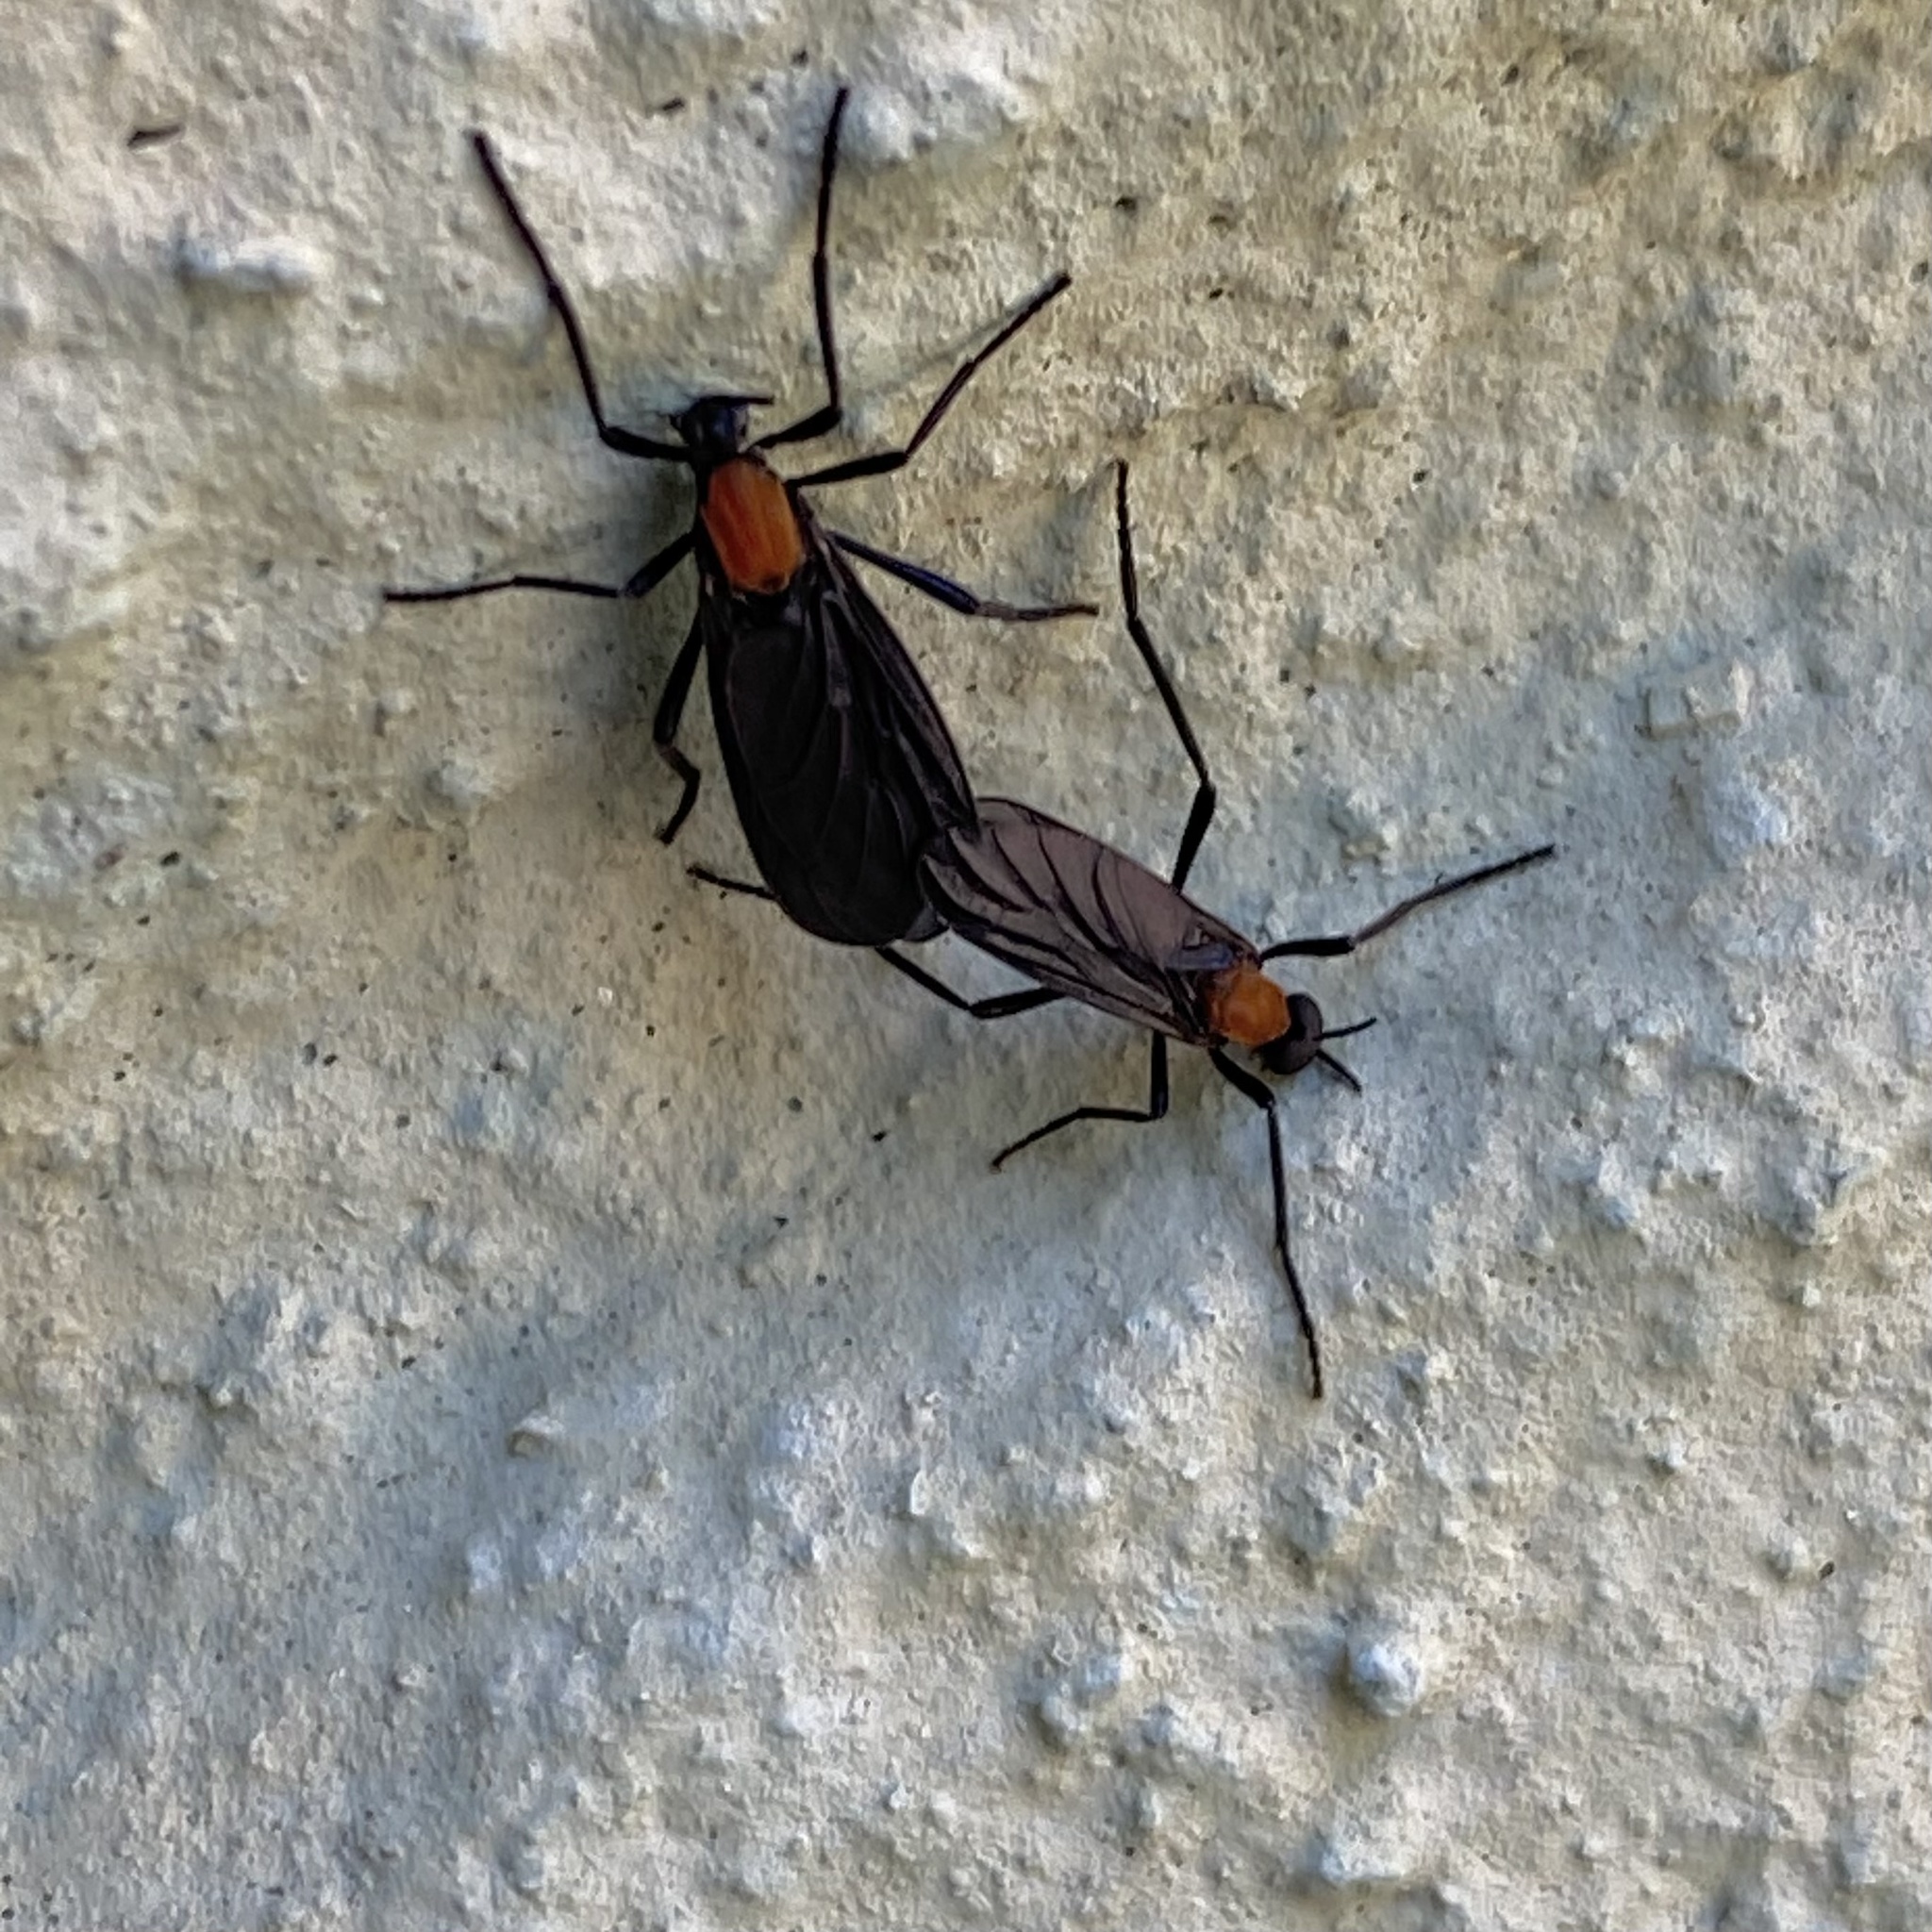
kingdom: Animalia
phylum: Arthropoda
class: Insecta
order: Diptera
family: Bibionidae
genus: Plecia
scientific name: Plecia ruficollis
